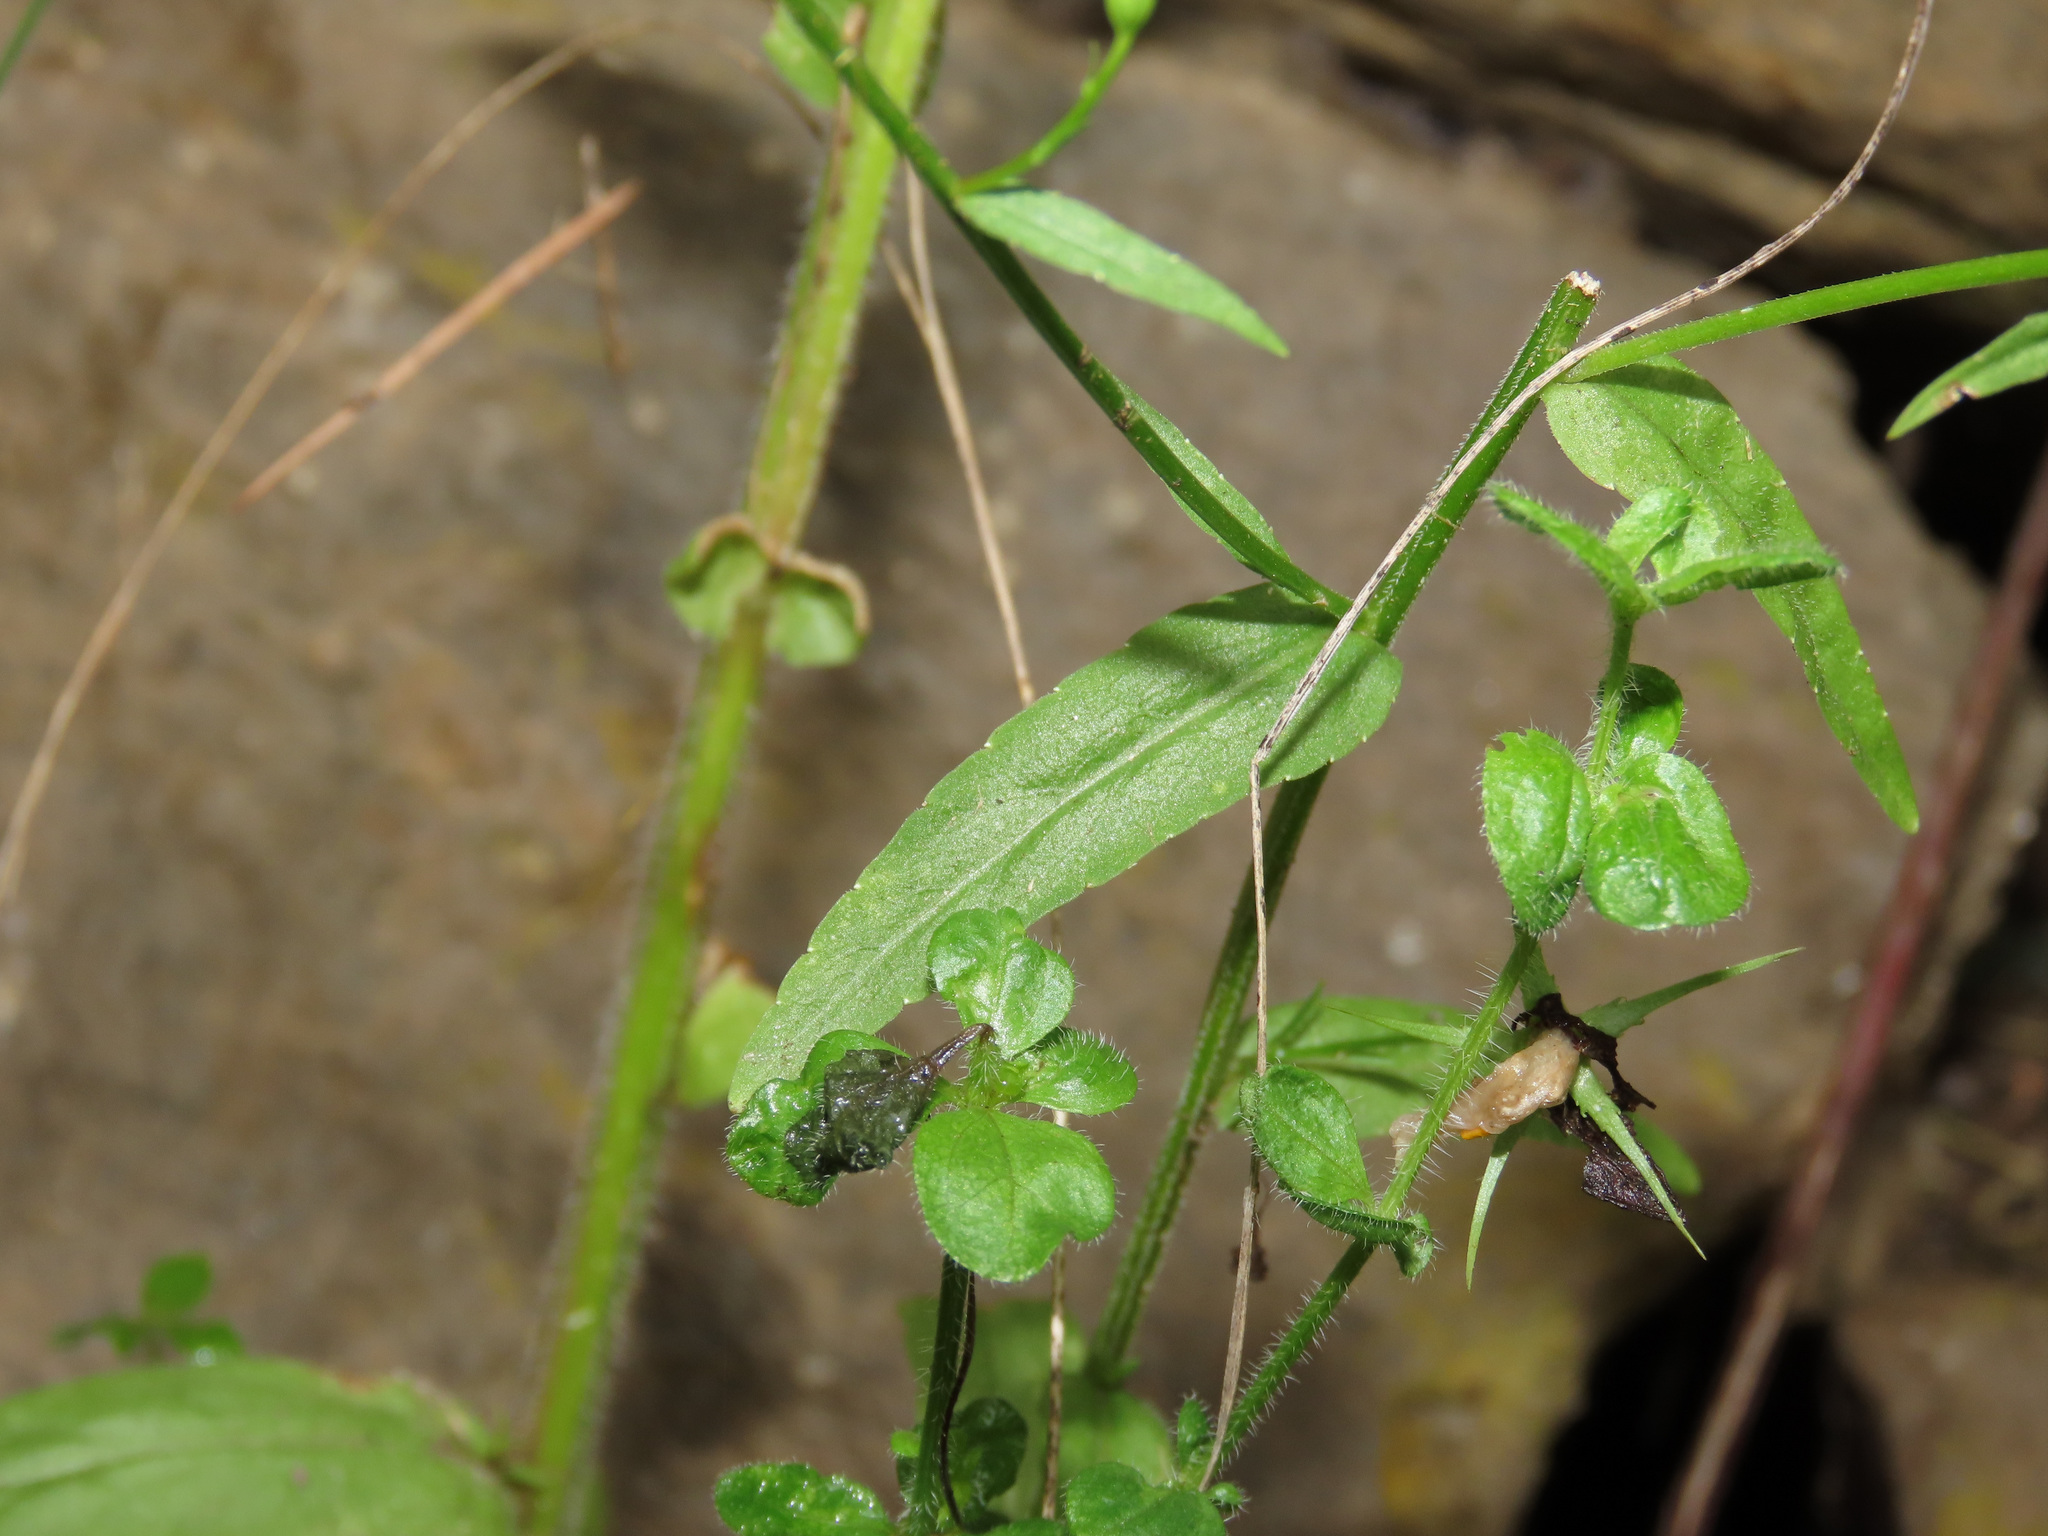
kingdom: Plantae
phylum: Tracheophyta
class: Magnoliopsida
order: Asterales
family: Campanulaceae
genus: Campanula
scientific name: Campanula patula
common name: Spreading bellflower
